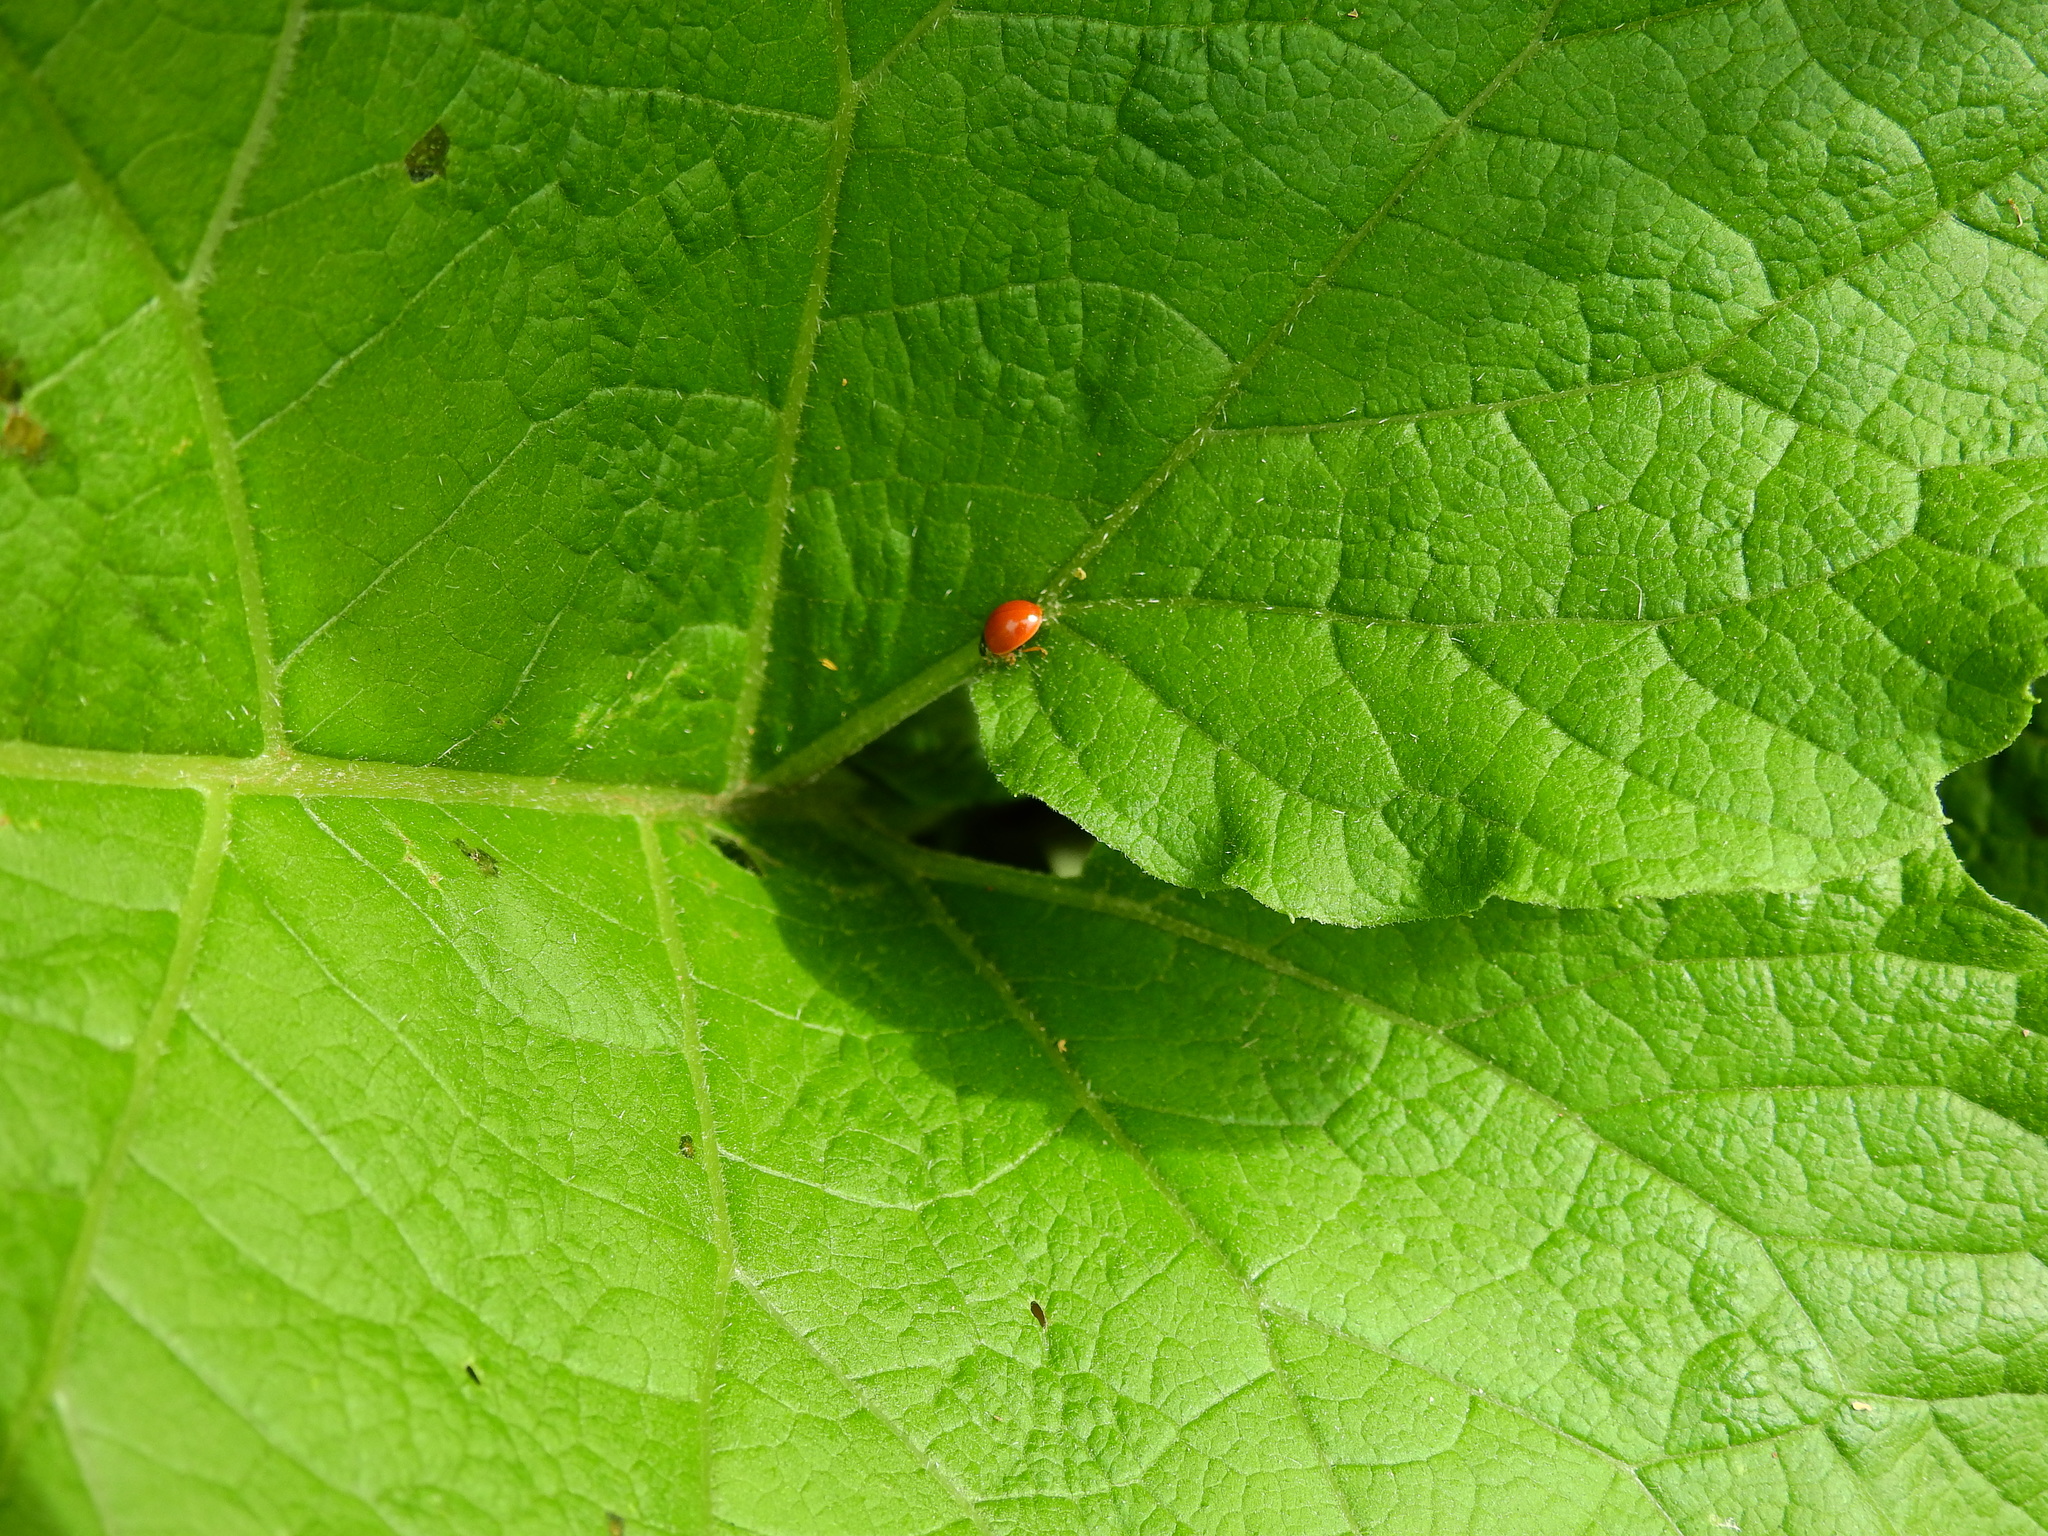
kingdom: Animalia
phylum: Arthropoda
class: Insecta
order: Coleoptera
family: Coccinellidae
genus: Cycloneda
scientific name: Cycloneda munda
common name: Polished lady beetle
